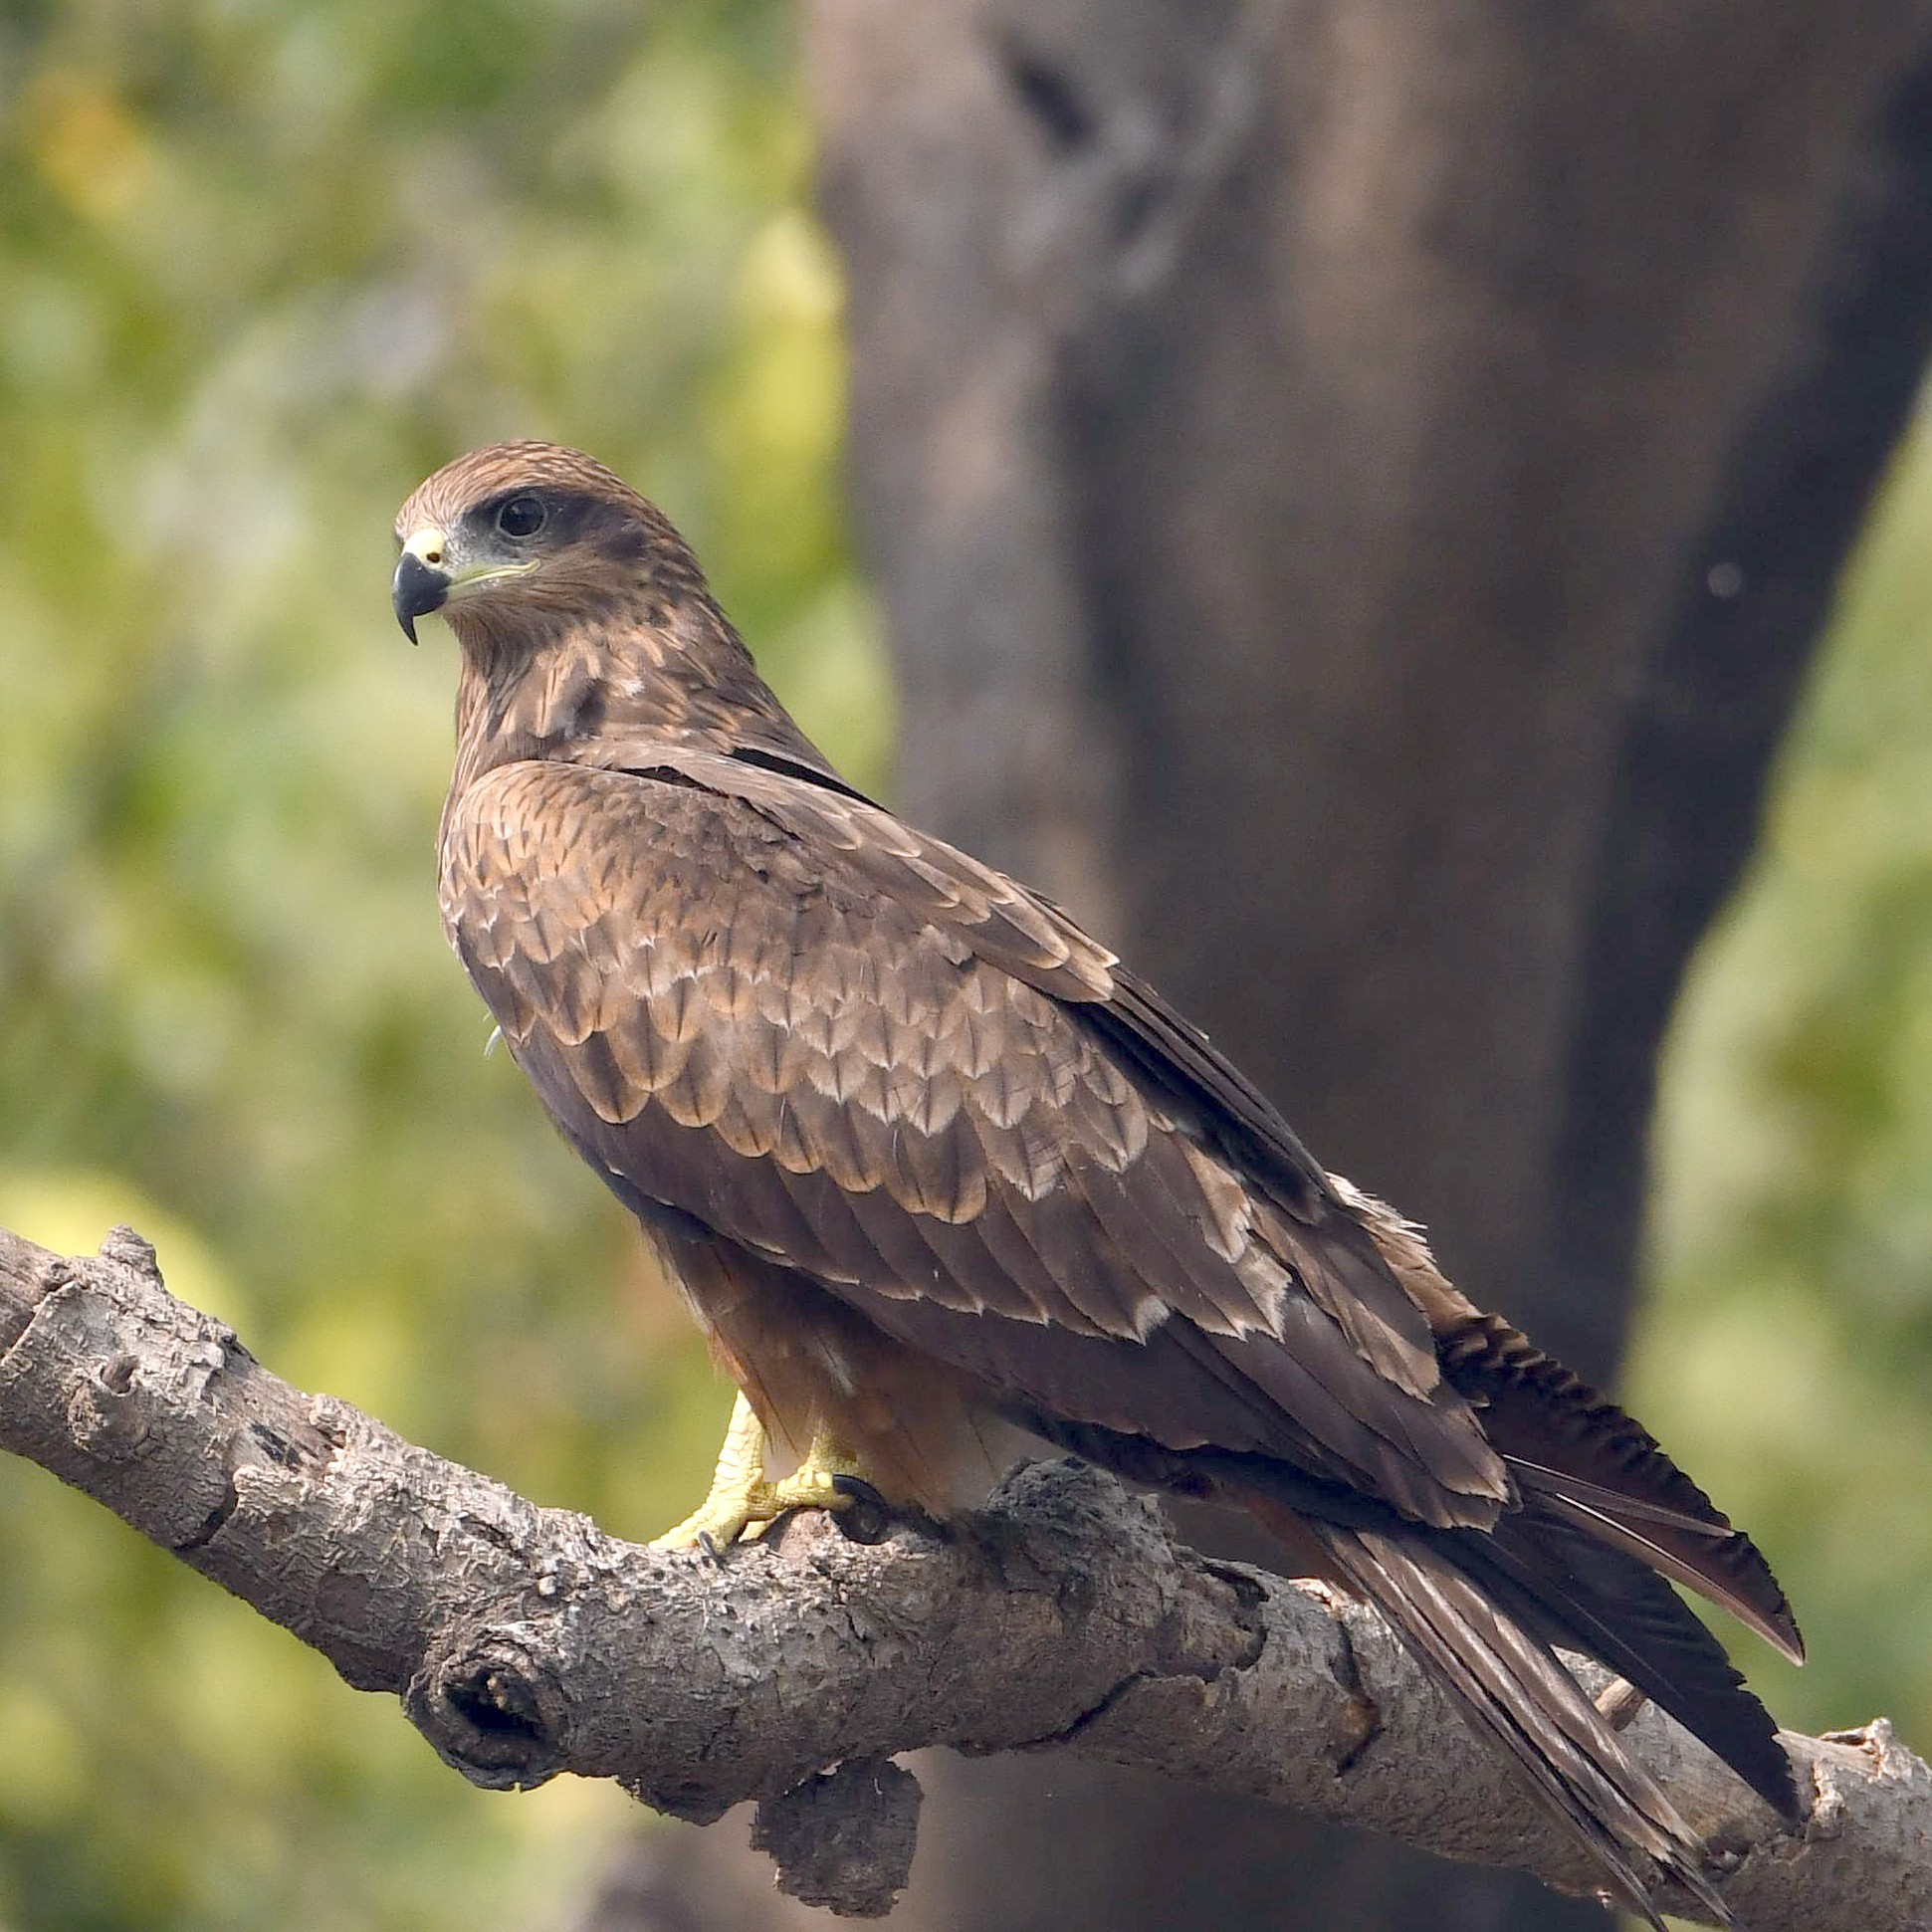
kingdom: Animalia
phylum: Chordata
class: Aves
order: Accipitriformes
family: Accipitridae
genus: Milvus
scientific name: Milvus migrans
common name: Black kite
